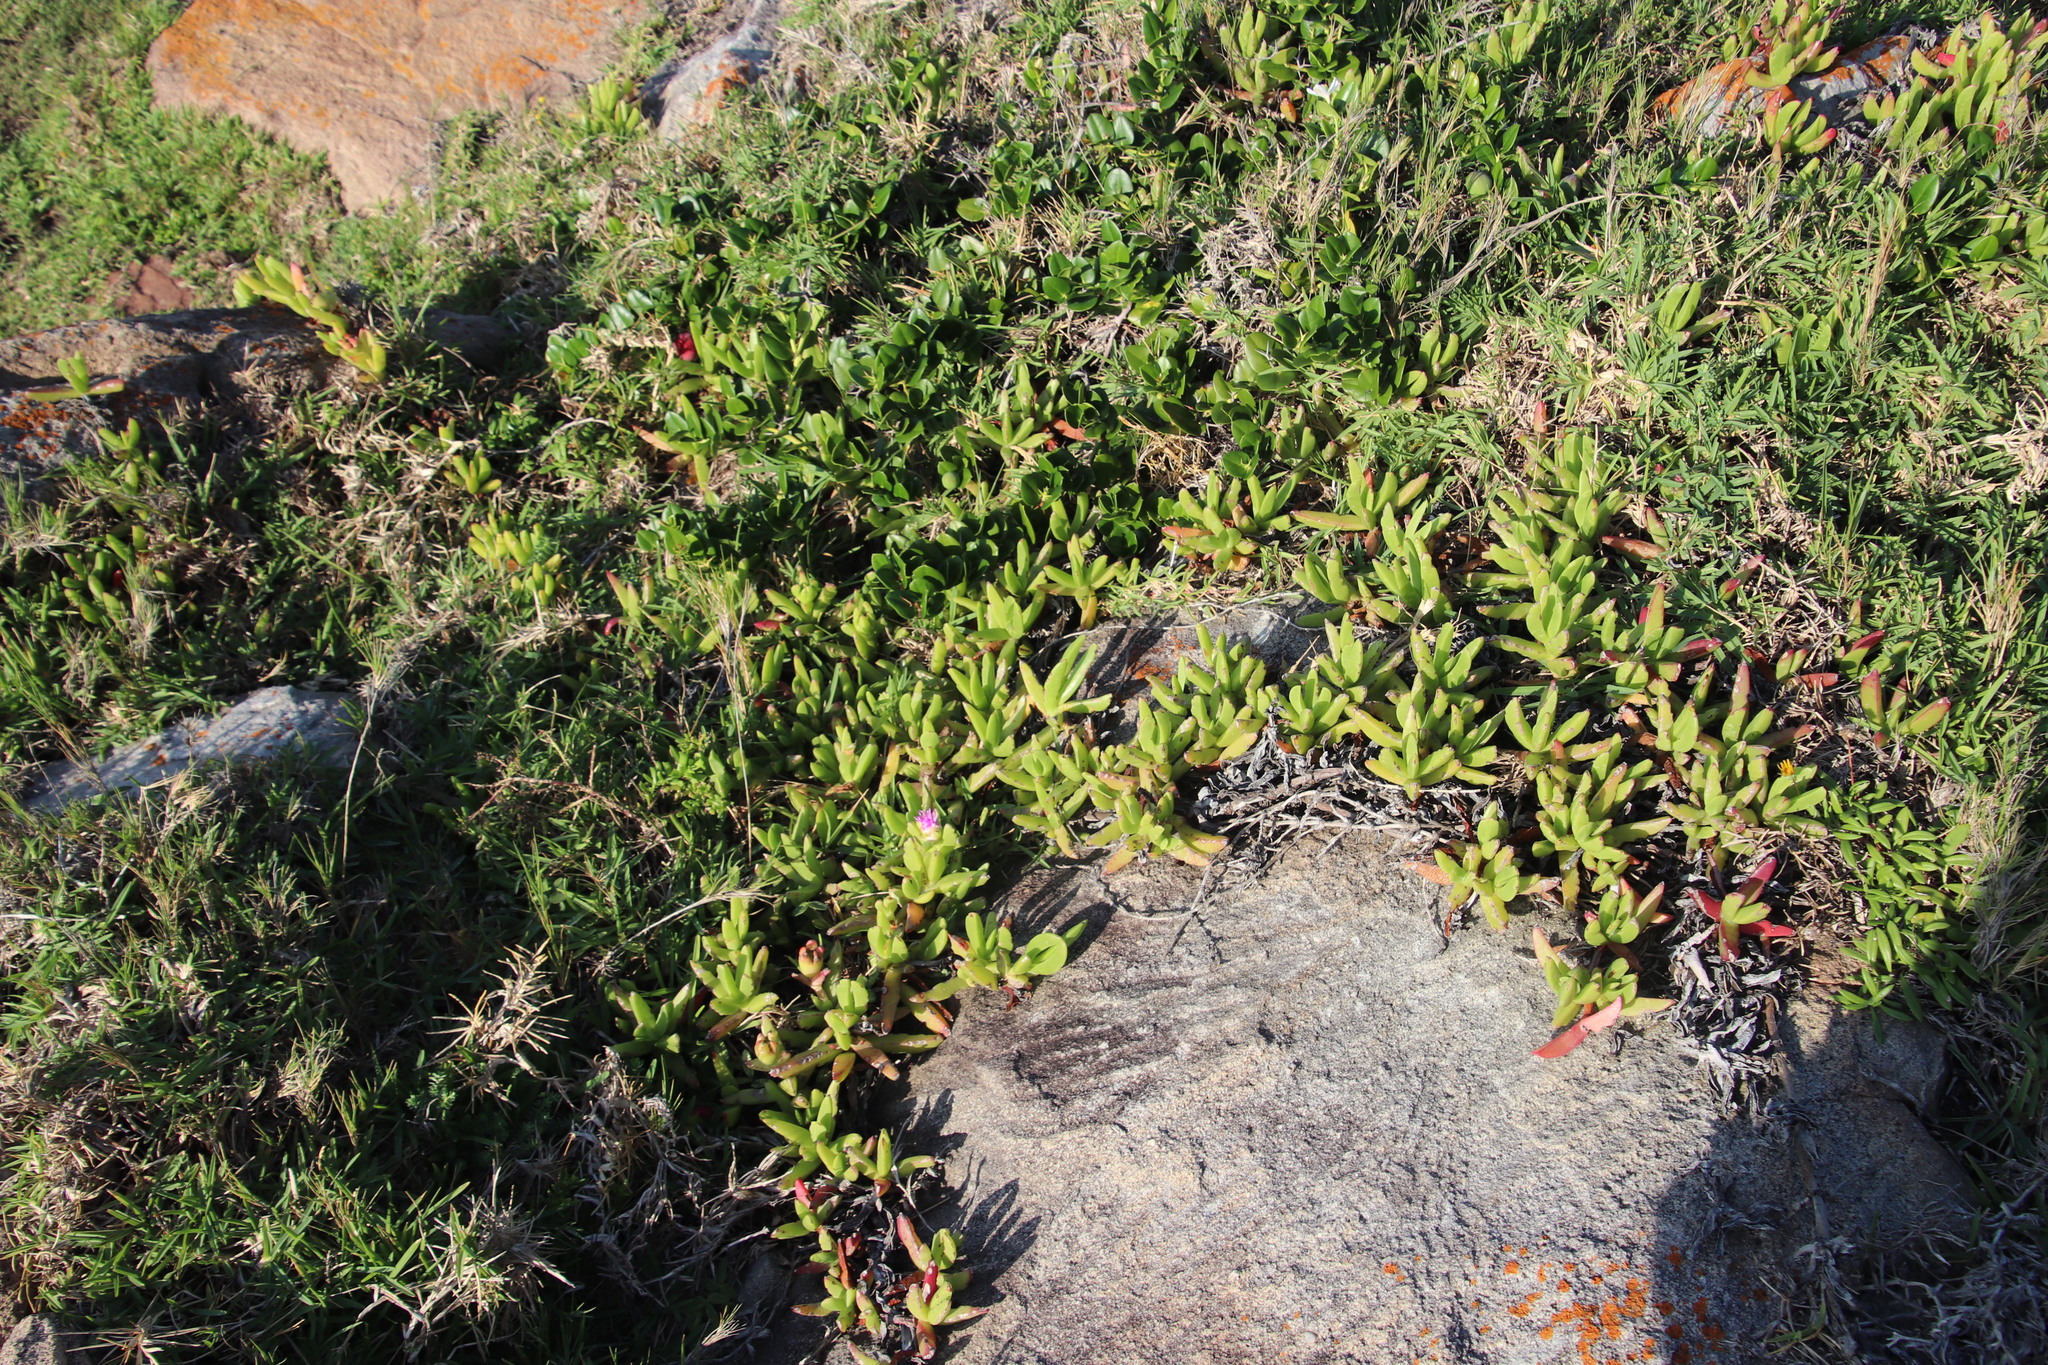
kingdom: Plantae
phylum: Tracheophyta
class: Magnoliopsida
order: Caryophyllales
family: Aizoaceae
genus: Carpobrotus
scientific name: Carpobrotus dimidiatus
